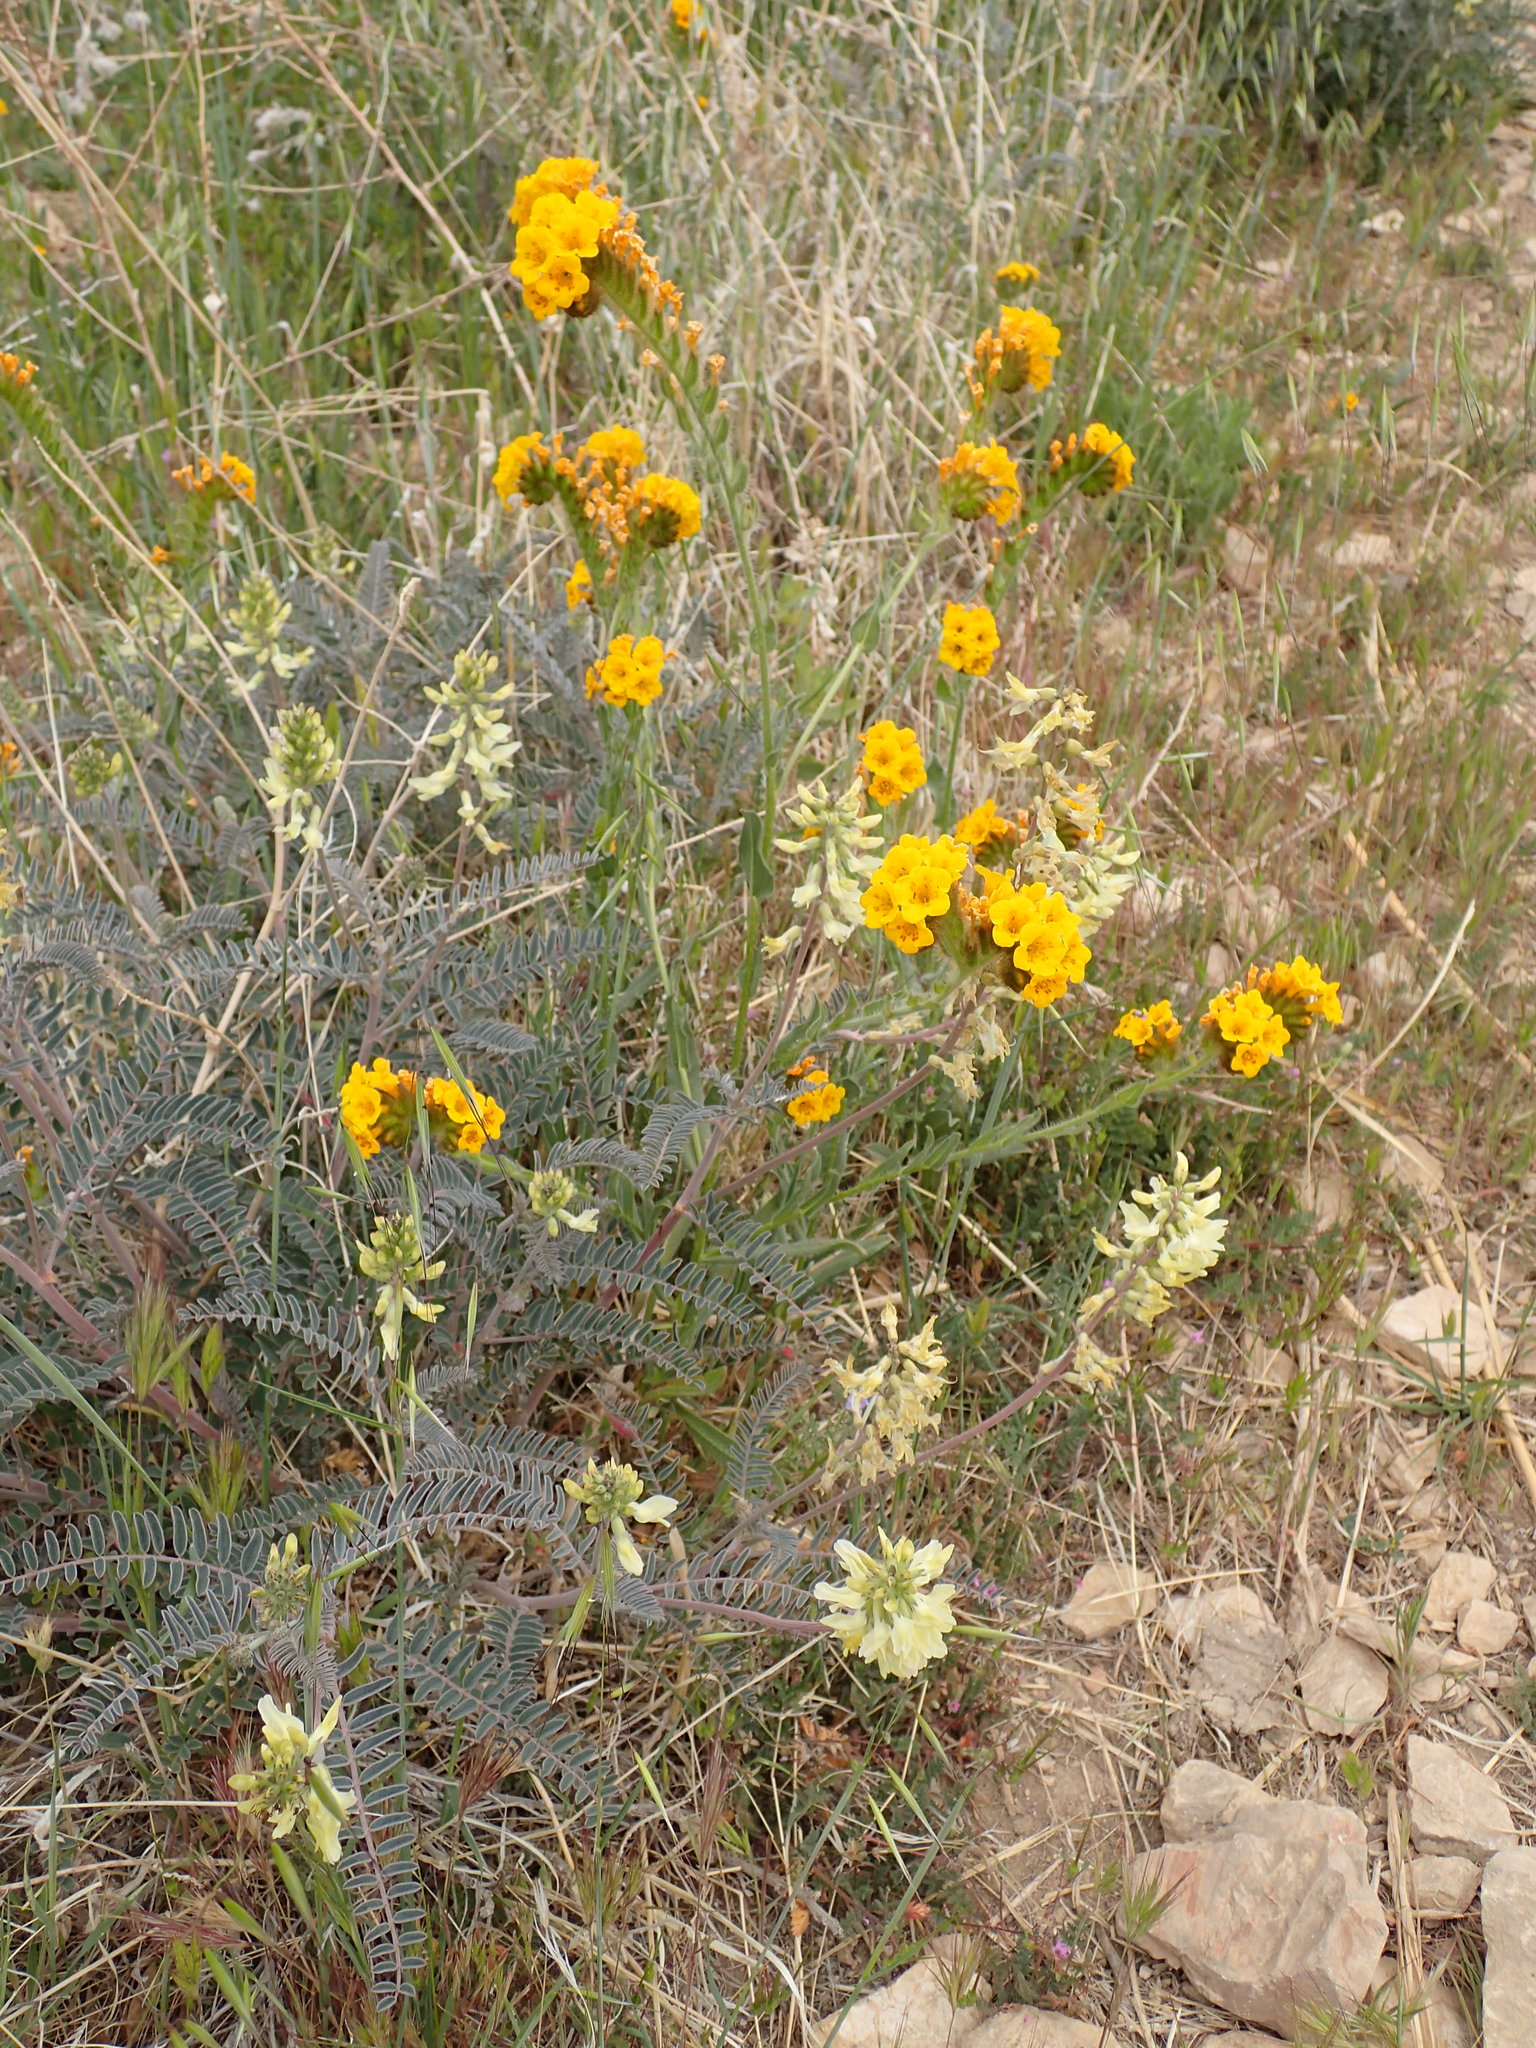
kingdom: Plantae
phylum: Tracheophyta
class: Magnoliopsida
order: Fabales
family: Fabaceae
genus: Astragalus
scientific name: Astragalus trichopodus
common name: Santa barbara milk-vetch
